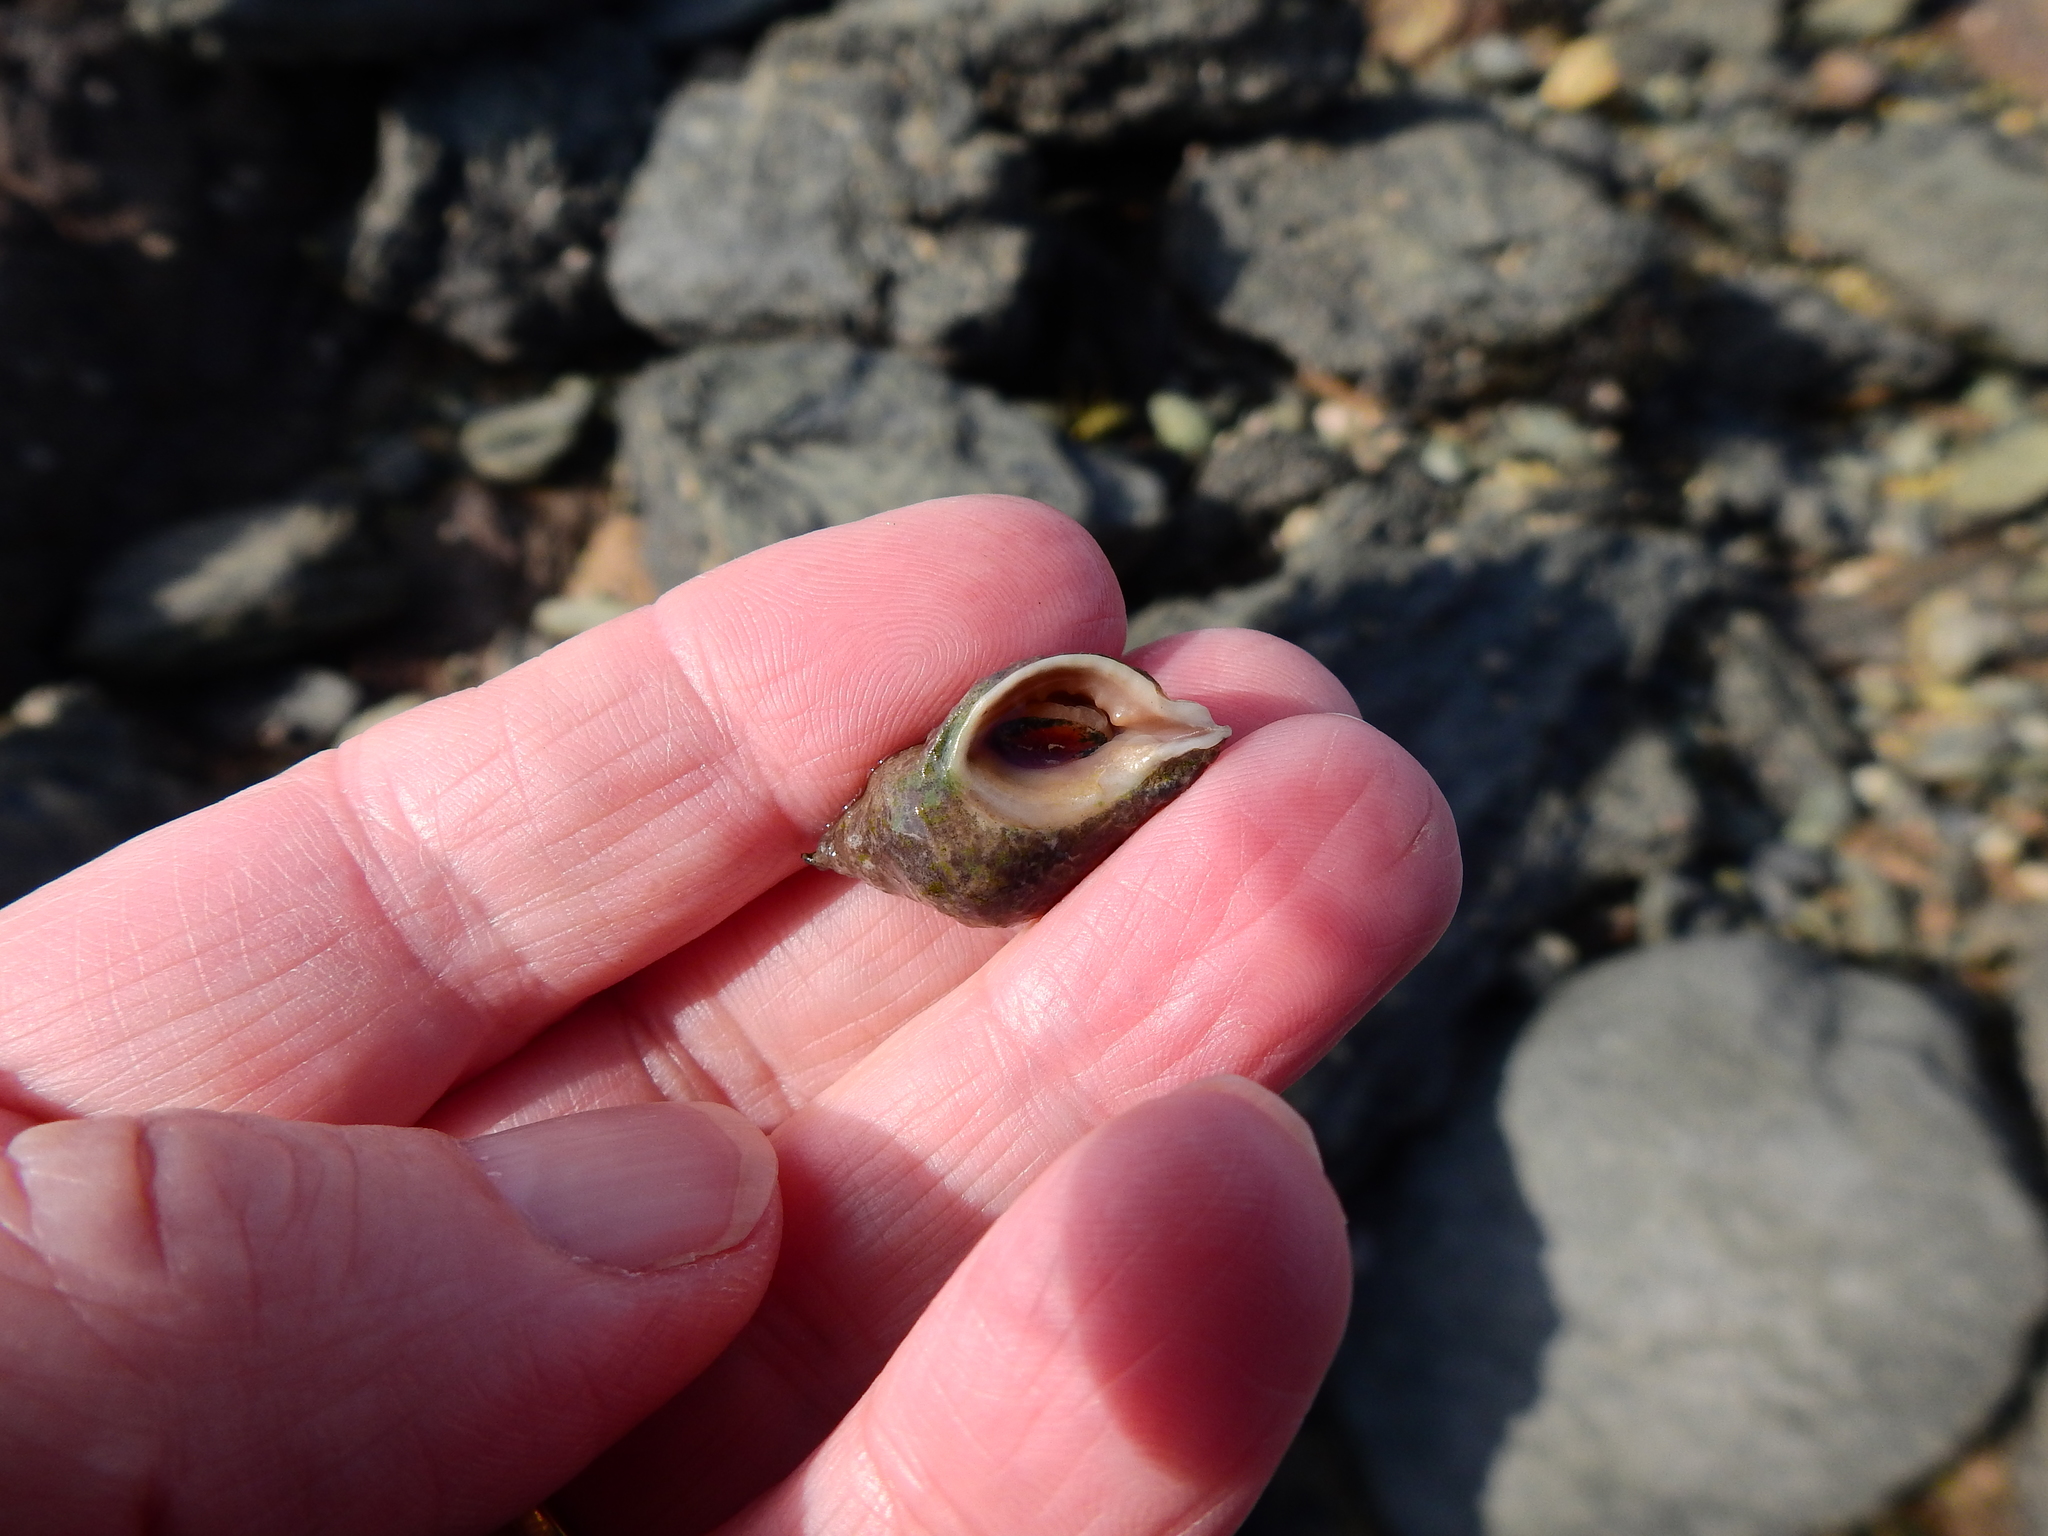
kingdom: Animalia
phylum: Mollusca
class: Gastropoda
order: Neogastropoda
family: Muricidae
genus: Nucella
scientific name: Nucella lapillus
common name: Dog whelk
